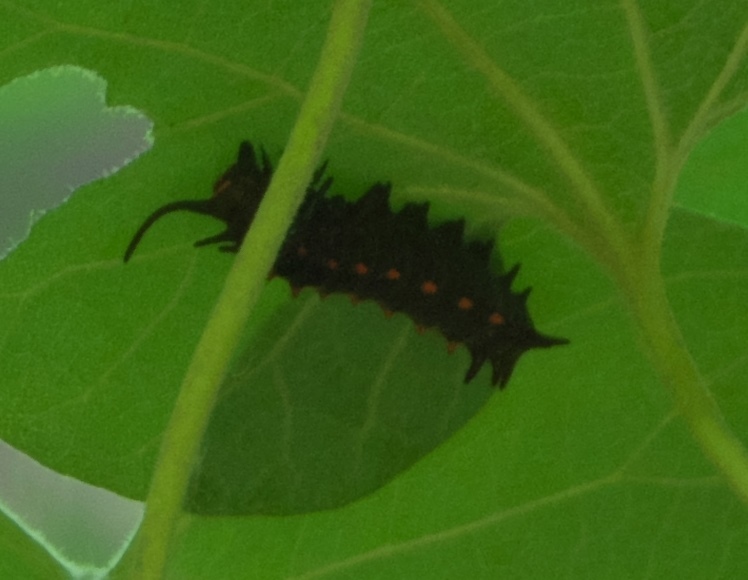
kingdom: Animalia
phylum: Arthropoda
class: Insecta
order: Lepidoptera
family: Papilionidae
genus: Battus
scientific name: Battus philenor
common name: Pipevine swallowtail
